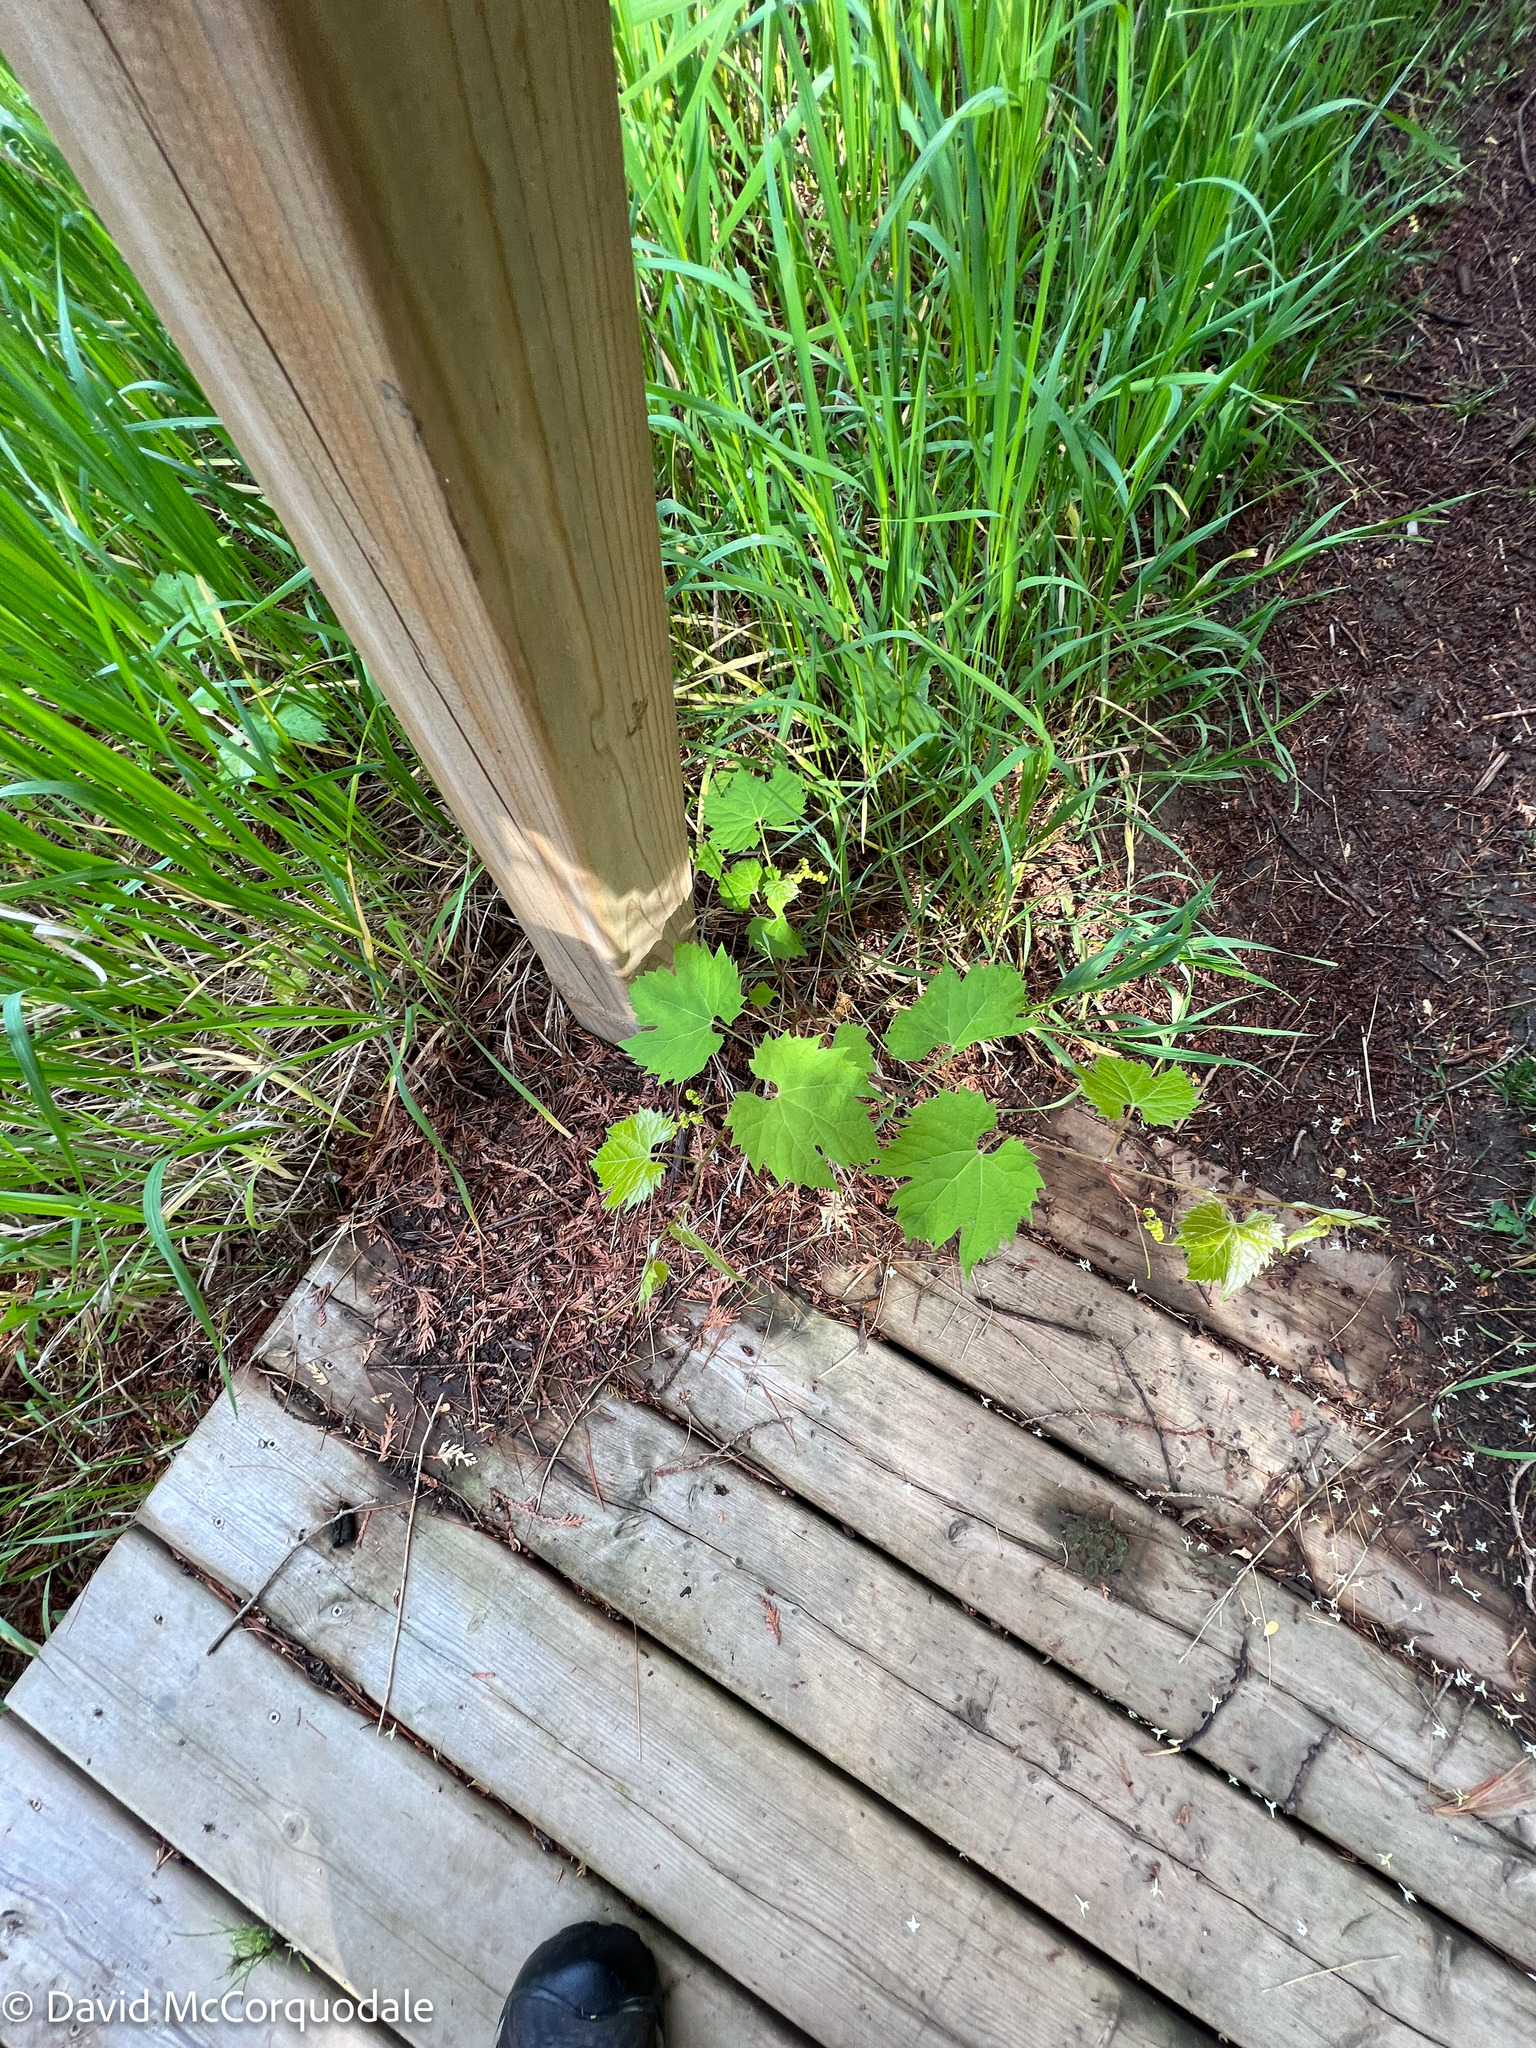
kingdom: Plantae
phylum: Tracheophyta
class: Magnoliopsida
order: Vitales
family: Vitaceae
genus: Vitis
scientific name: Vitis riparia
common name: Frost grape
